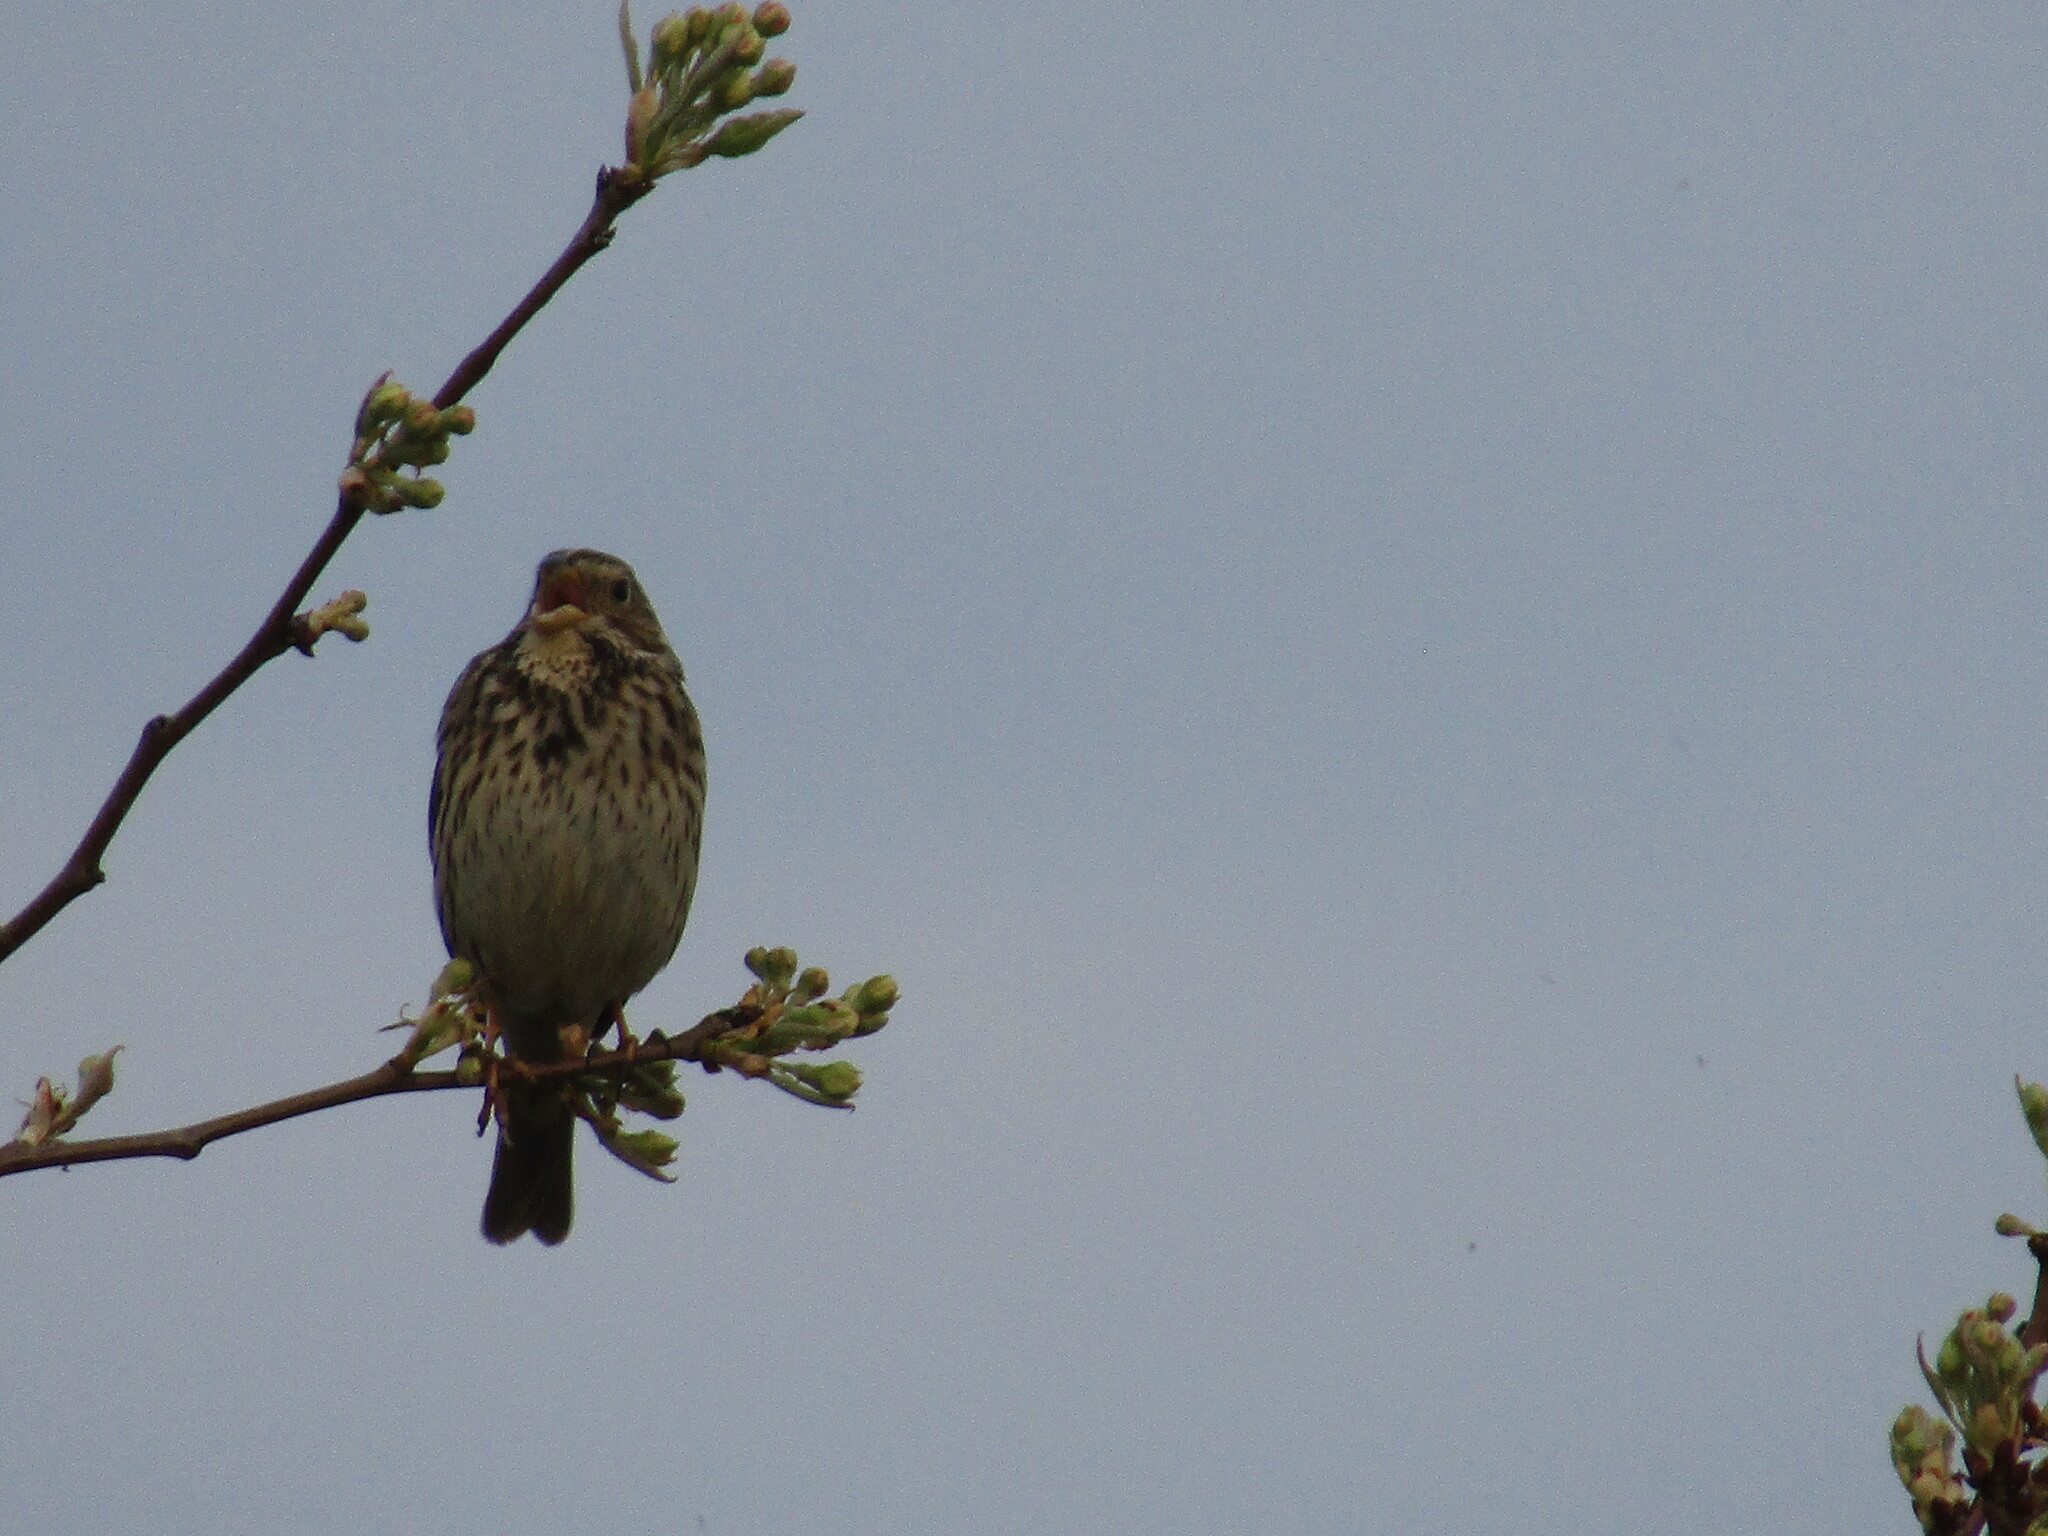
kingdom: Animalia
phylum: Chordata
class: Aves
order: Passeriformes
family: Emberizidae
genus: Emberiza
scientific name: Emberiza calandra
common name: Corn bunting
